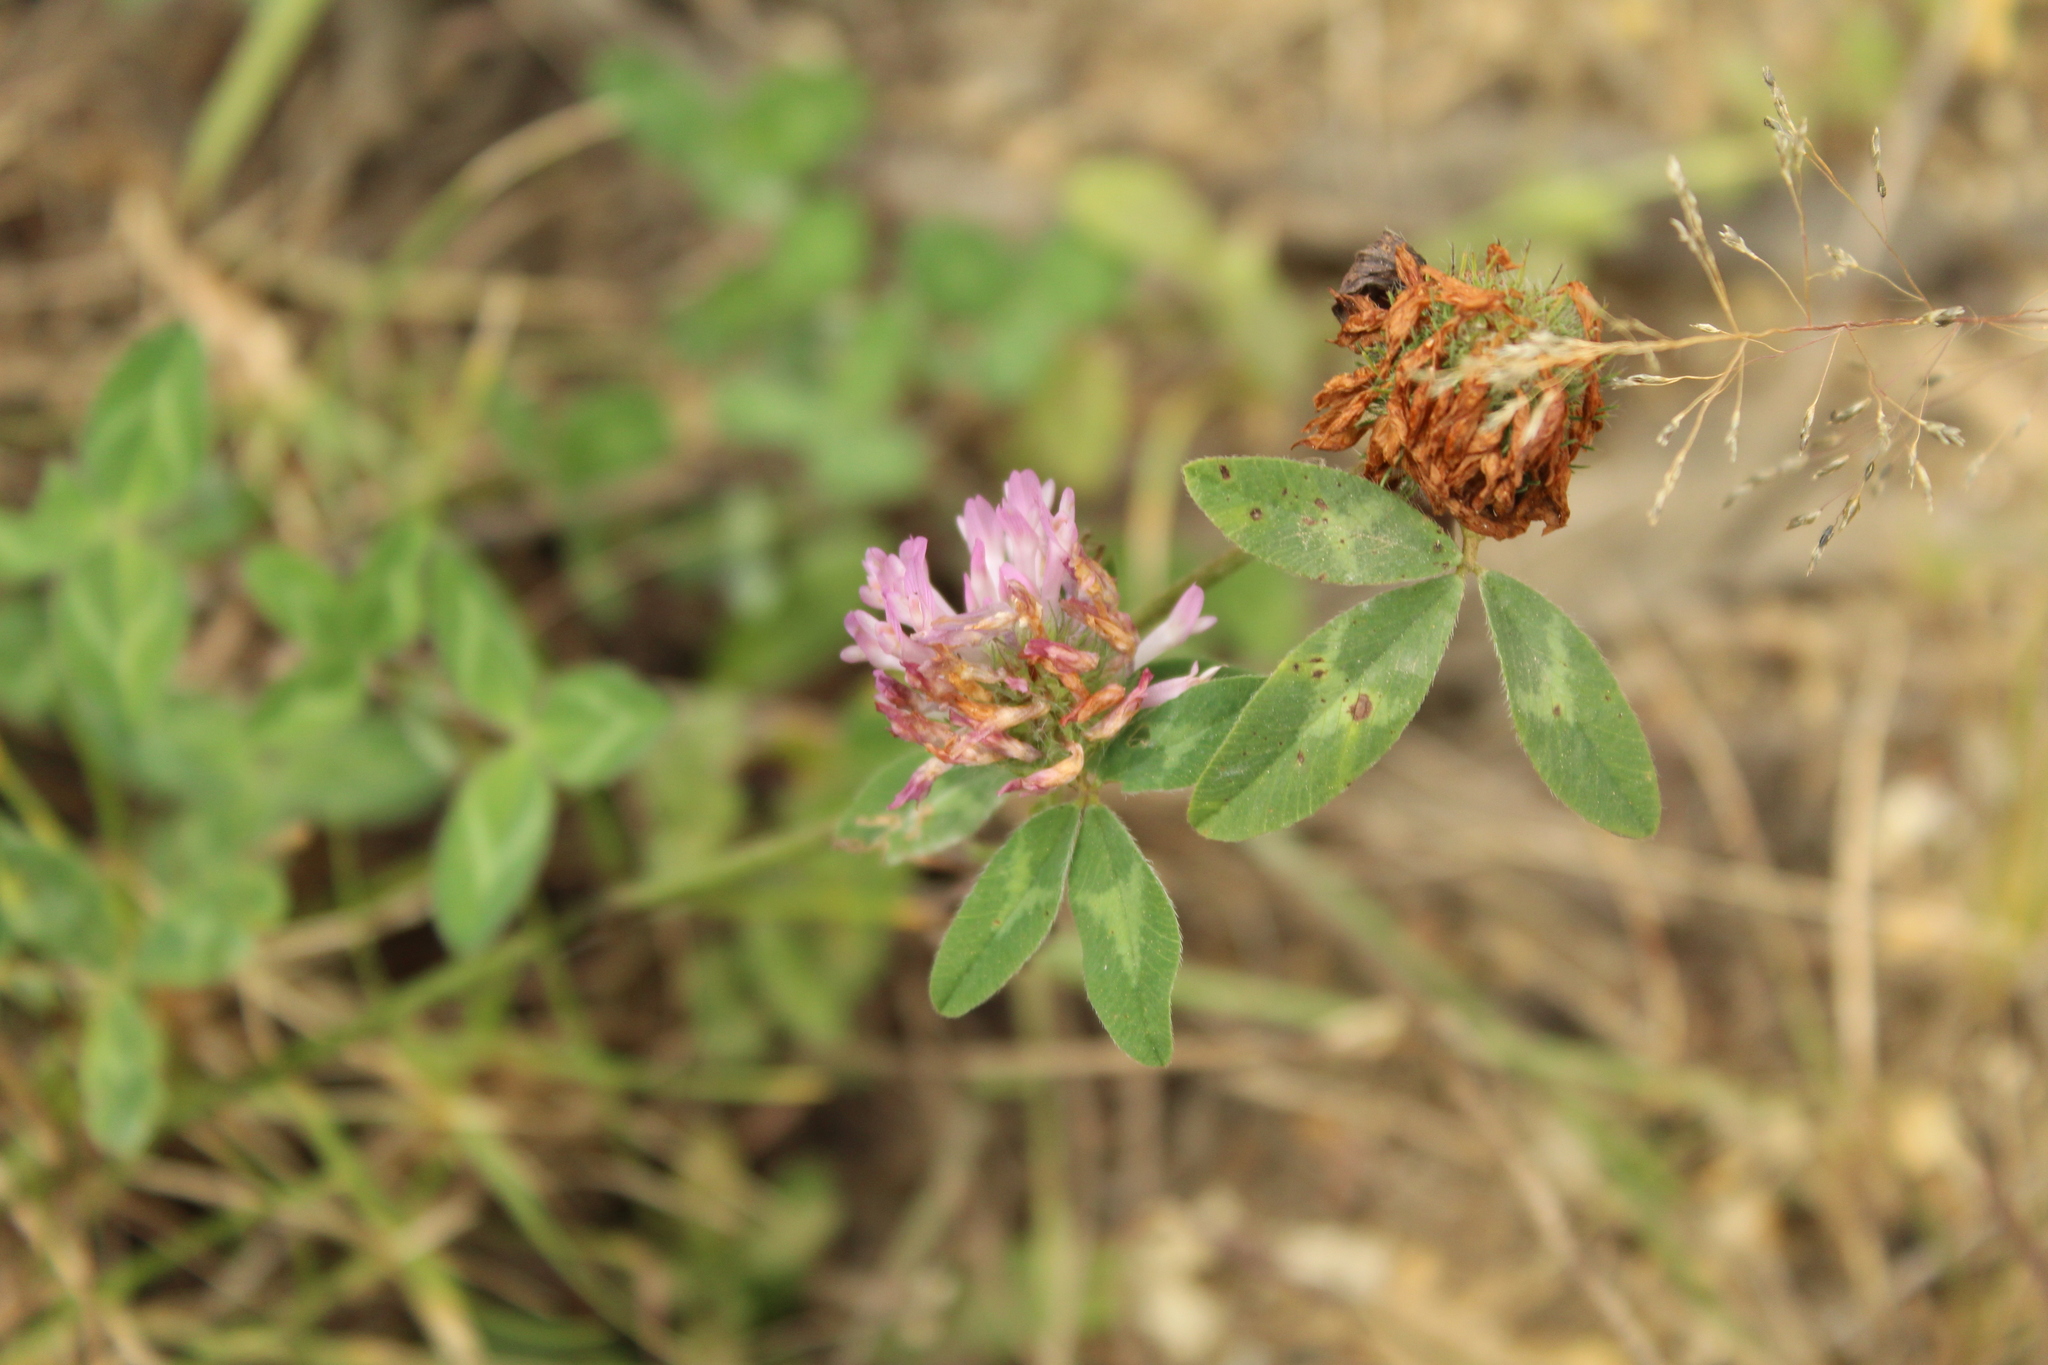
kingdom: Plantae
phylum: Tracheophyta
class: Magnoliopsida
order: Fabales
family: Fabaceae
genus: Trifolium
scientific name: Trifolium pratense
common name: Red clover
